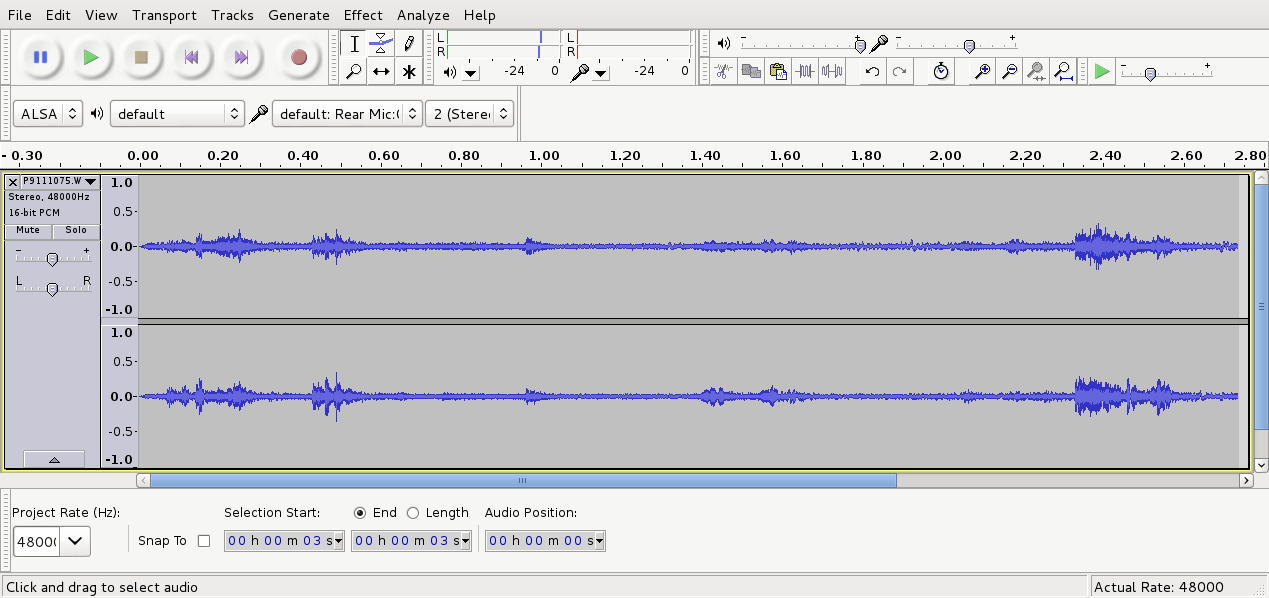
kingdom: Animalia
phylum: Chordata
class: Aves
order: Passeriformes
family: Zosteropidae
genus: Zosterops
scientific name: Zosterops lateralis
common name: Silvereye
